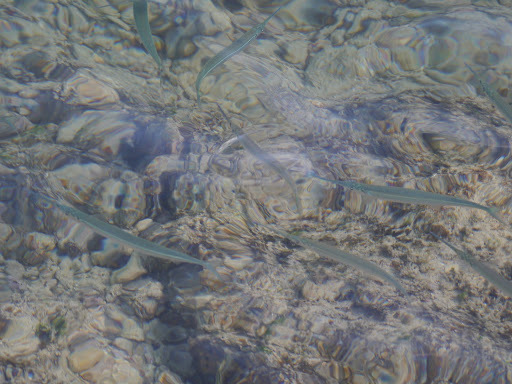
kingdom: Animalia
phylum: Chordata
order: Beloniformes
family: Belonidae
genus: Platybelone
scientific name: Platybelone argalus
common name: Keeltail needlefish
